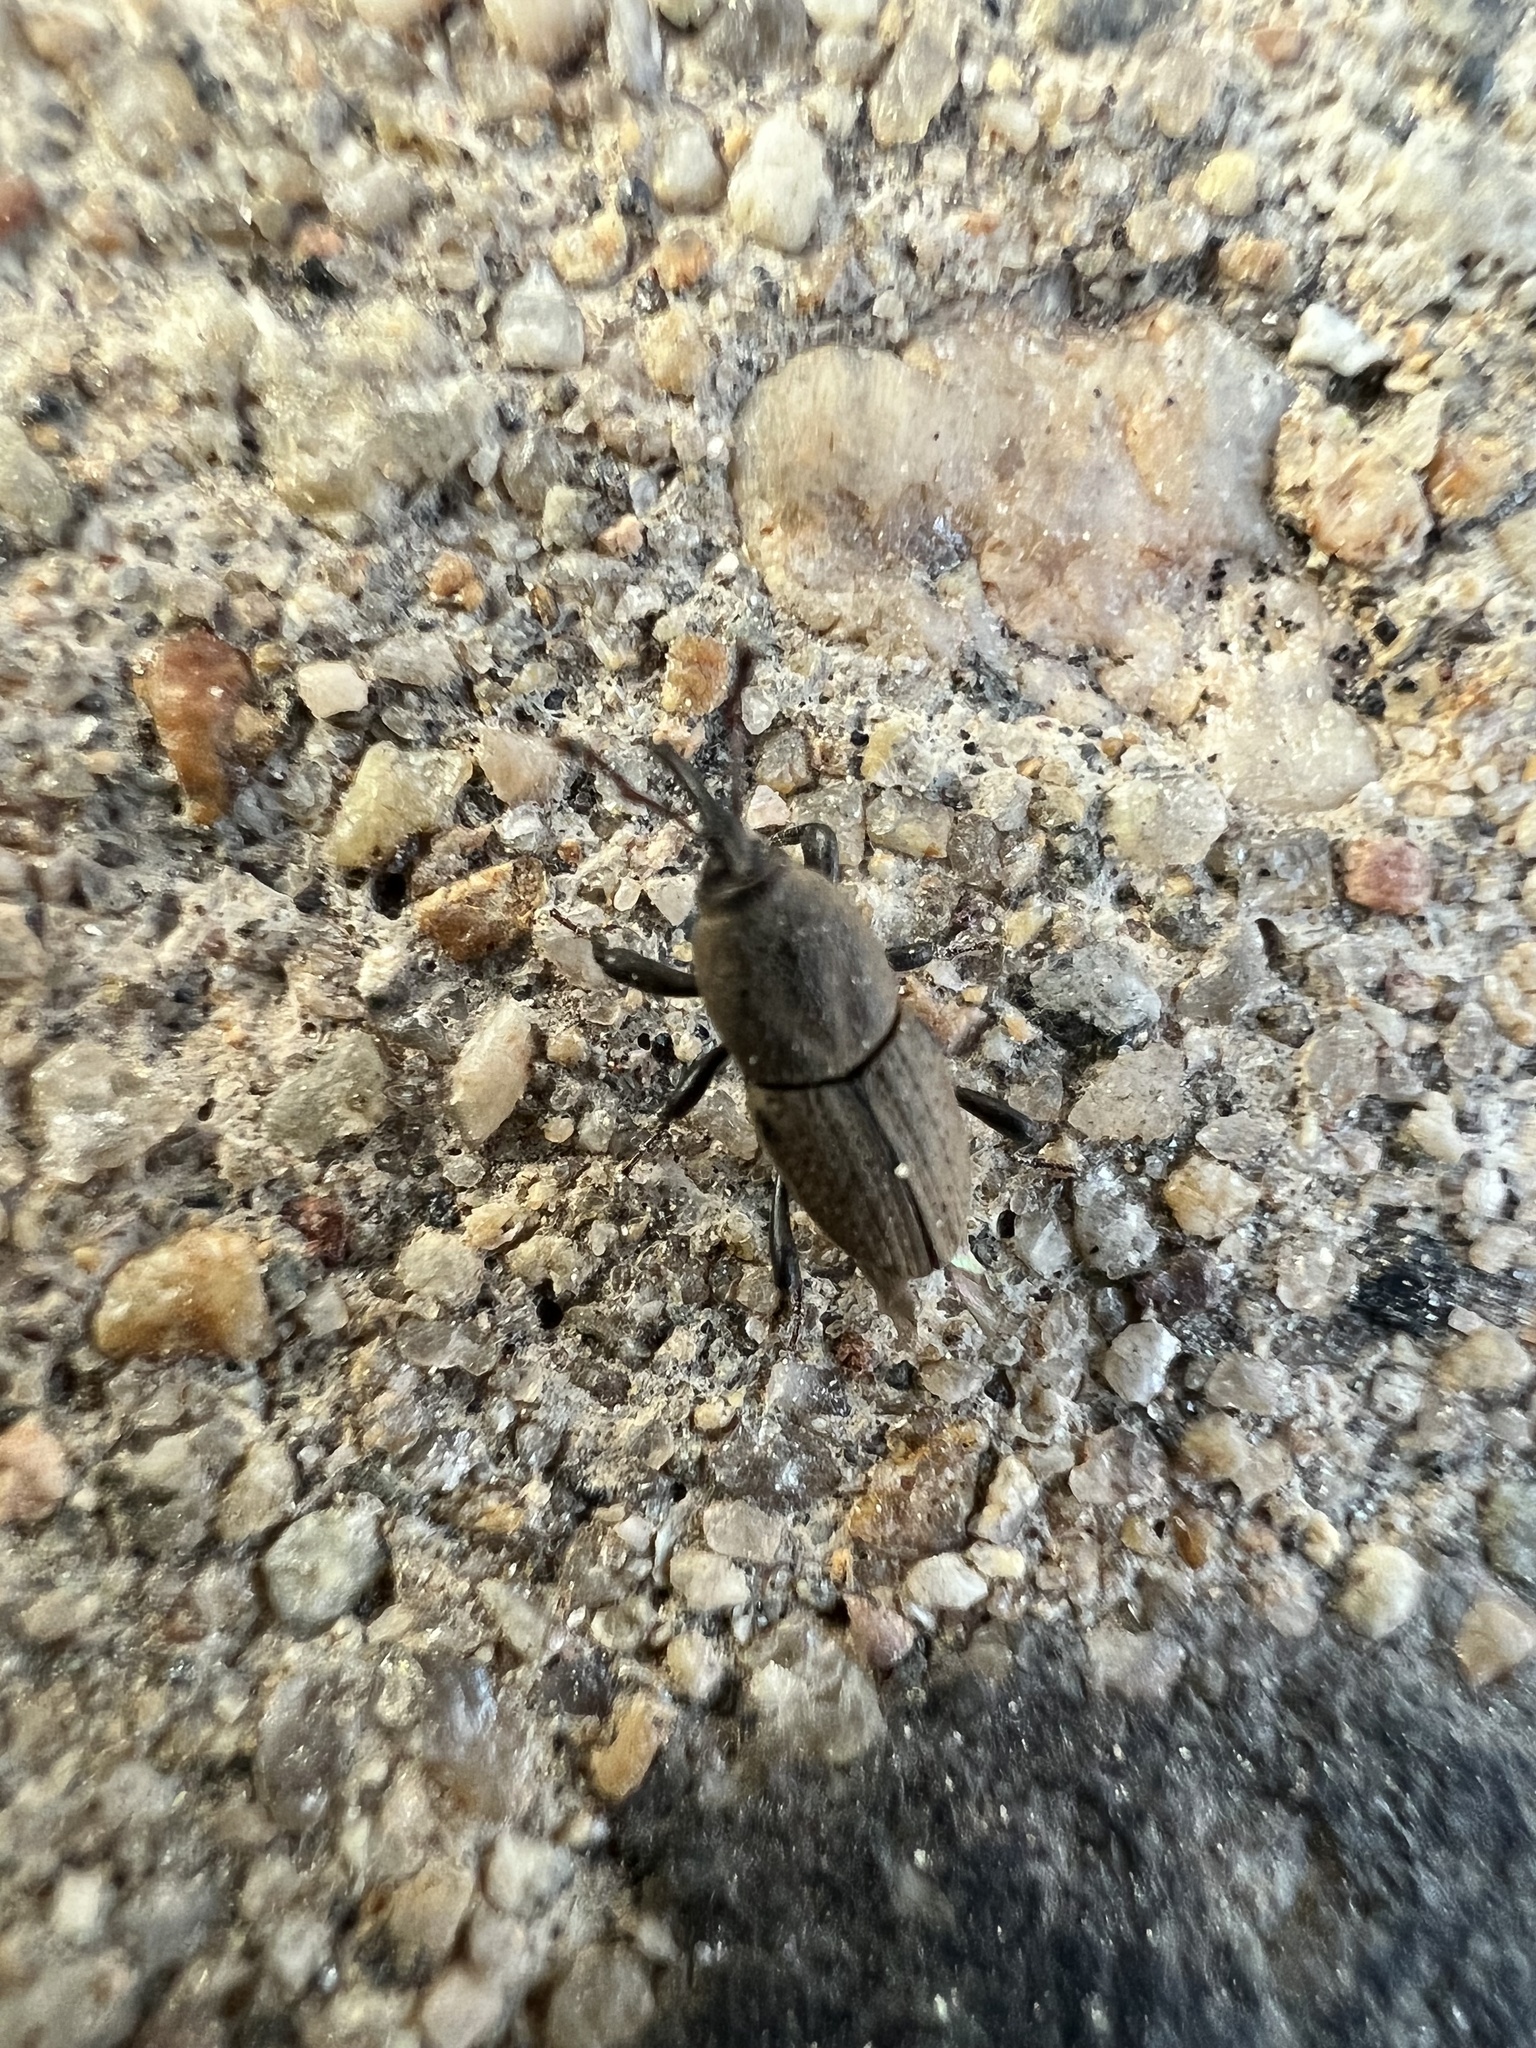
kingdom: Animalia
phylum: Arthropoda
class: Insecta
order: Coleoptera
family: Dryophthoridae
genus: Sphenophorus
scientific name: Sphenophorus interstitialis
